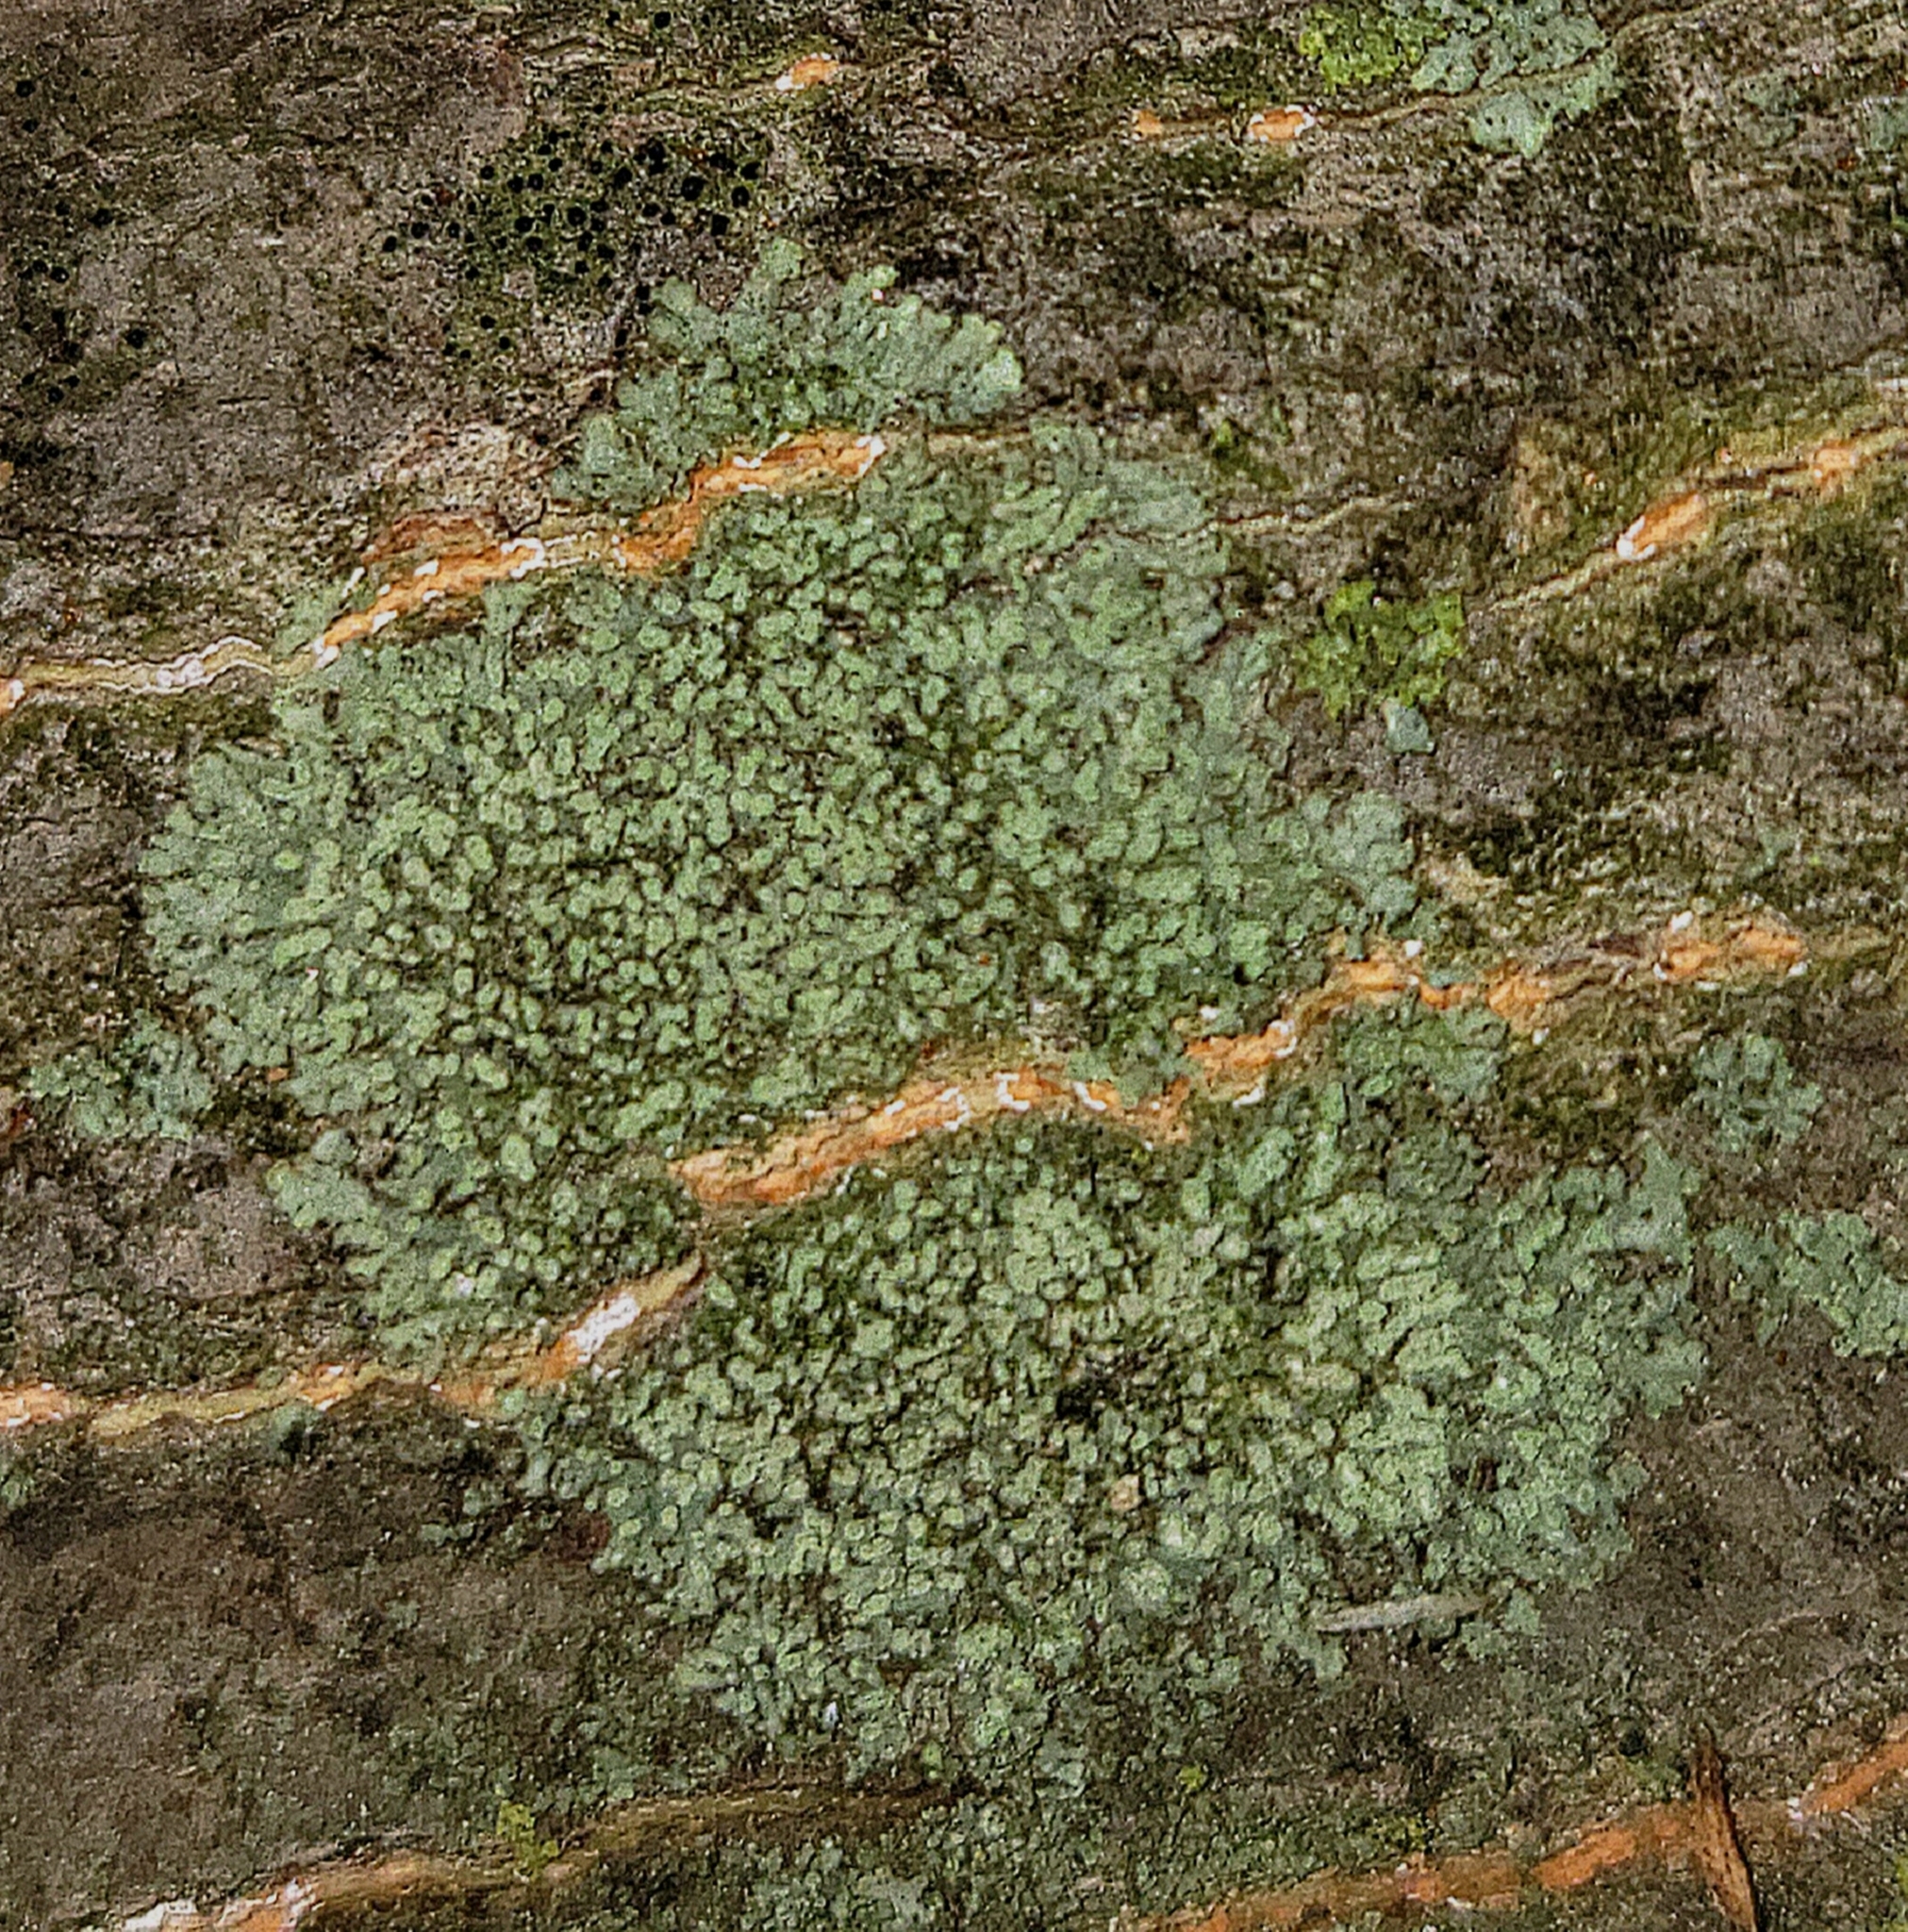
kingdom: Fungi
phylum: Ascomycota
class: Lecanoromycetes
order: Caliciales
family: Physciaceae
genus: Hyperphyscia
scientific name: Hyperphyscia adglutinata
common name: Grainy shadow-crust lichen
